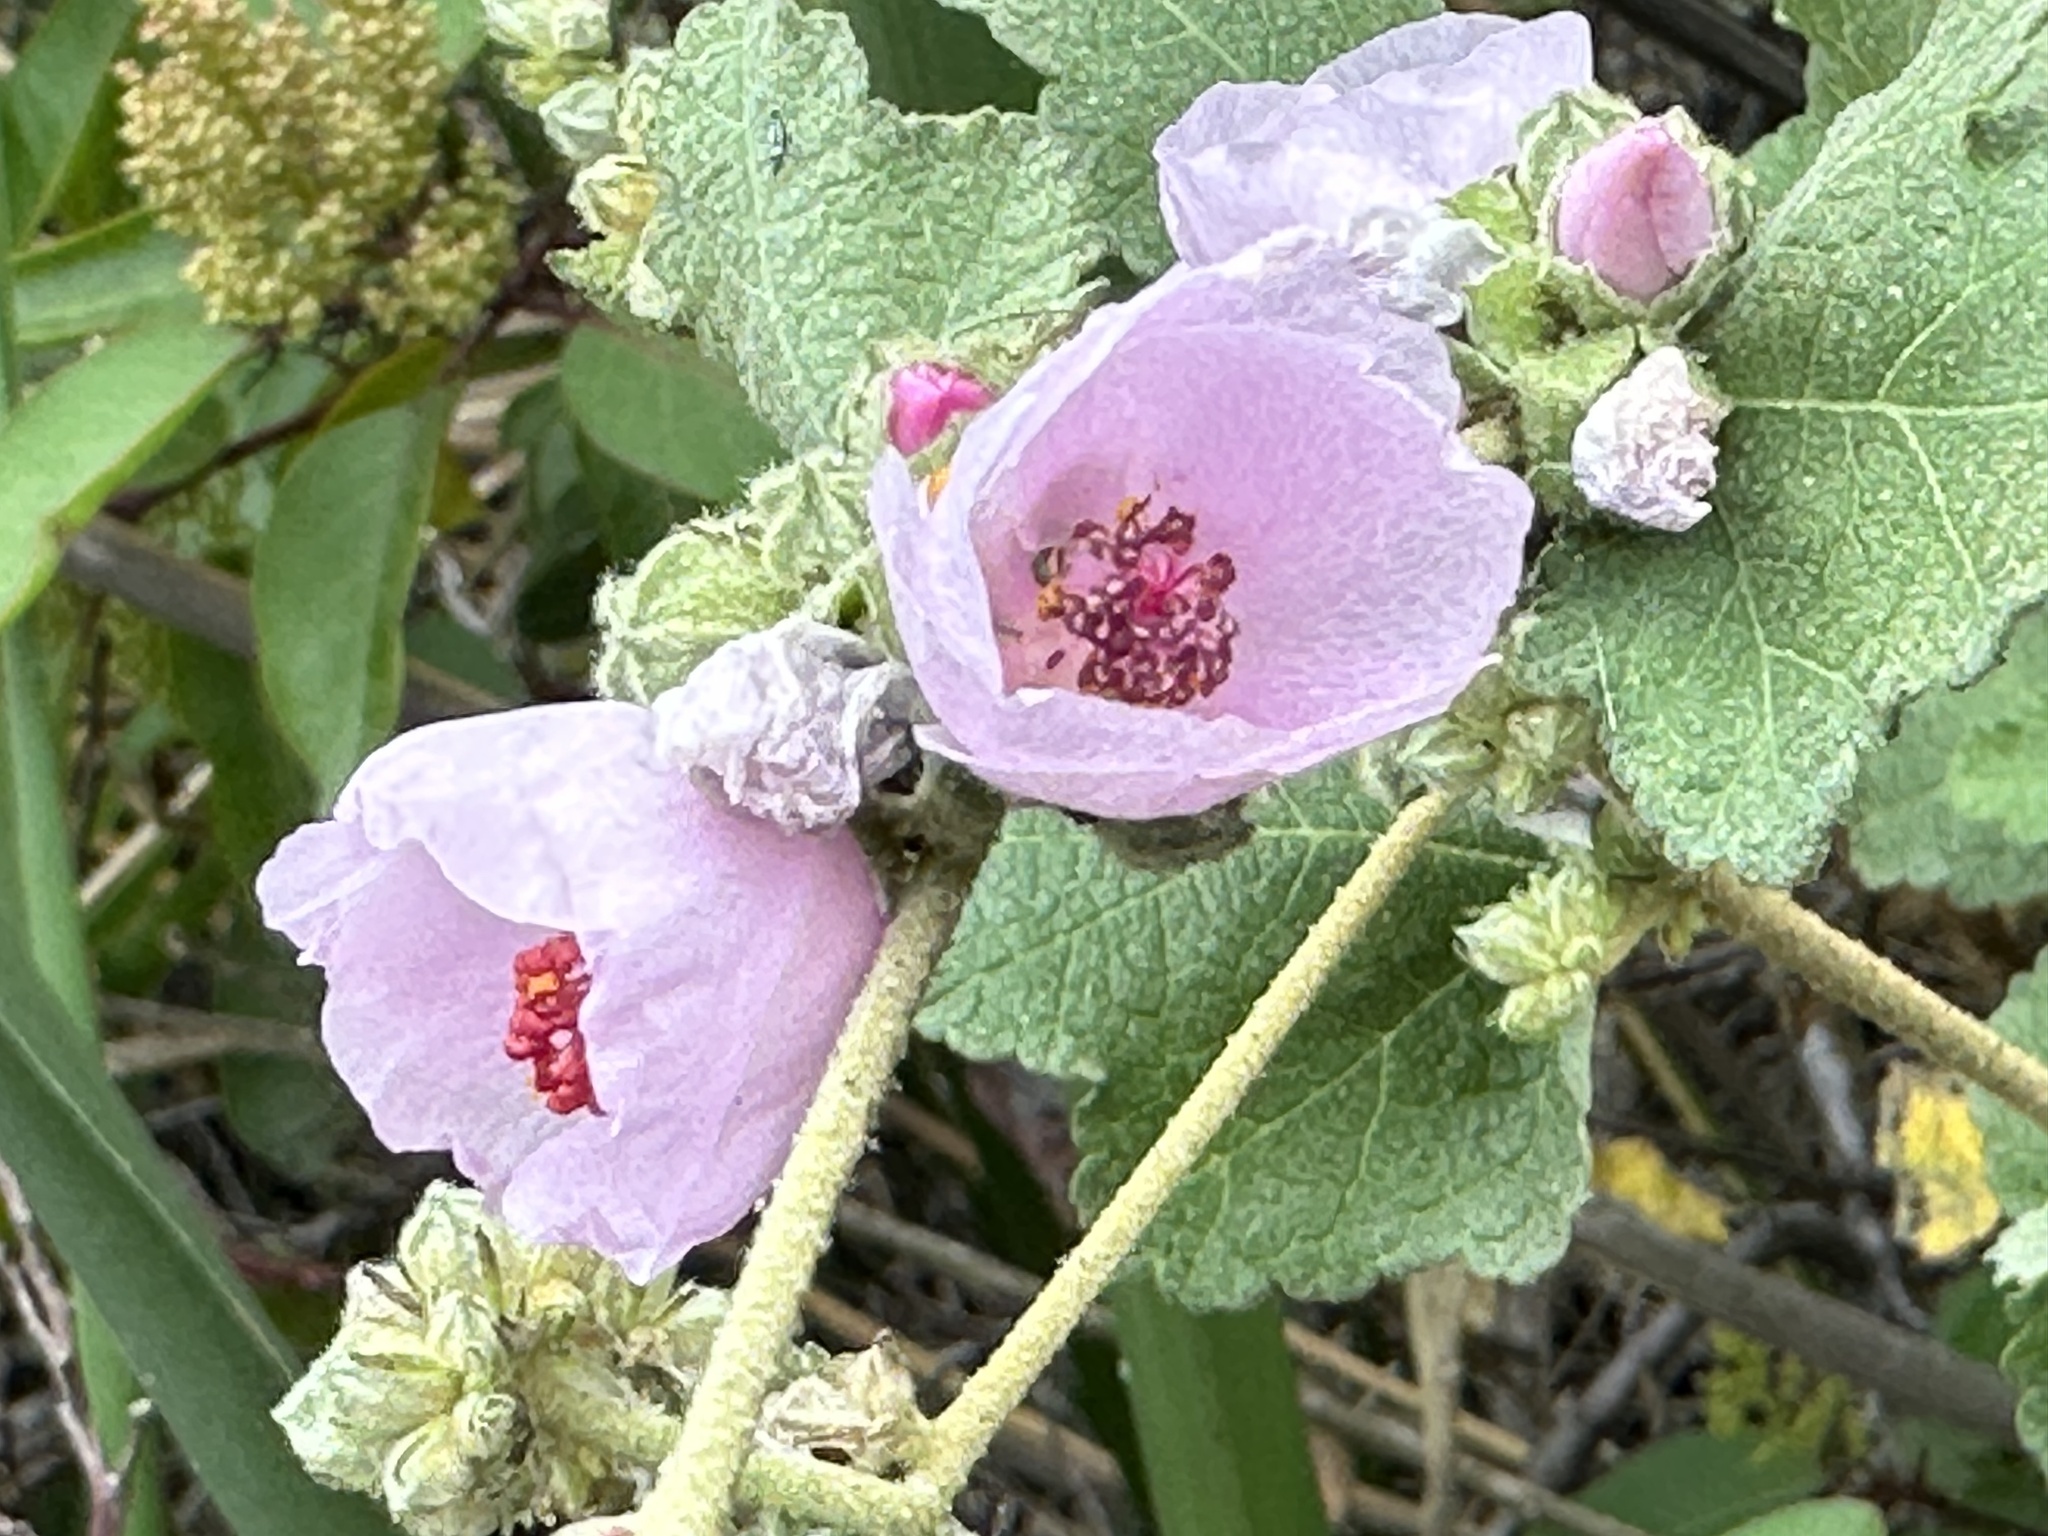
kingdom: Plantae
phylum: Tracheophyta
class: Magnoliopsida
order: Malvales
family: Malvaceae
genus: Malacothamnus
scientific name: Malacothamnus fasciculatus
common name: Sant cruz island bush-mallow
